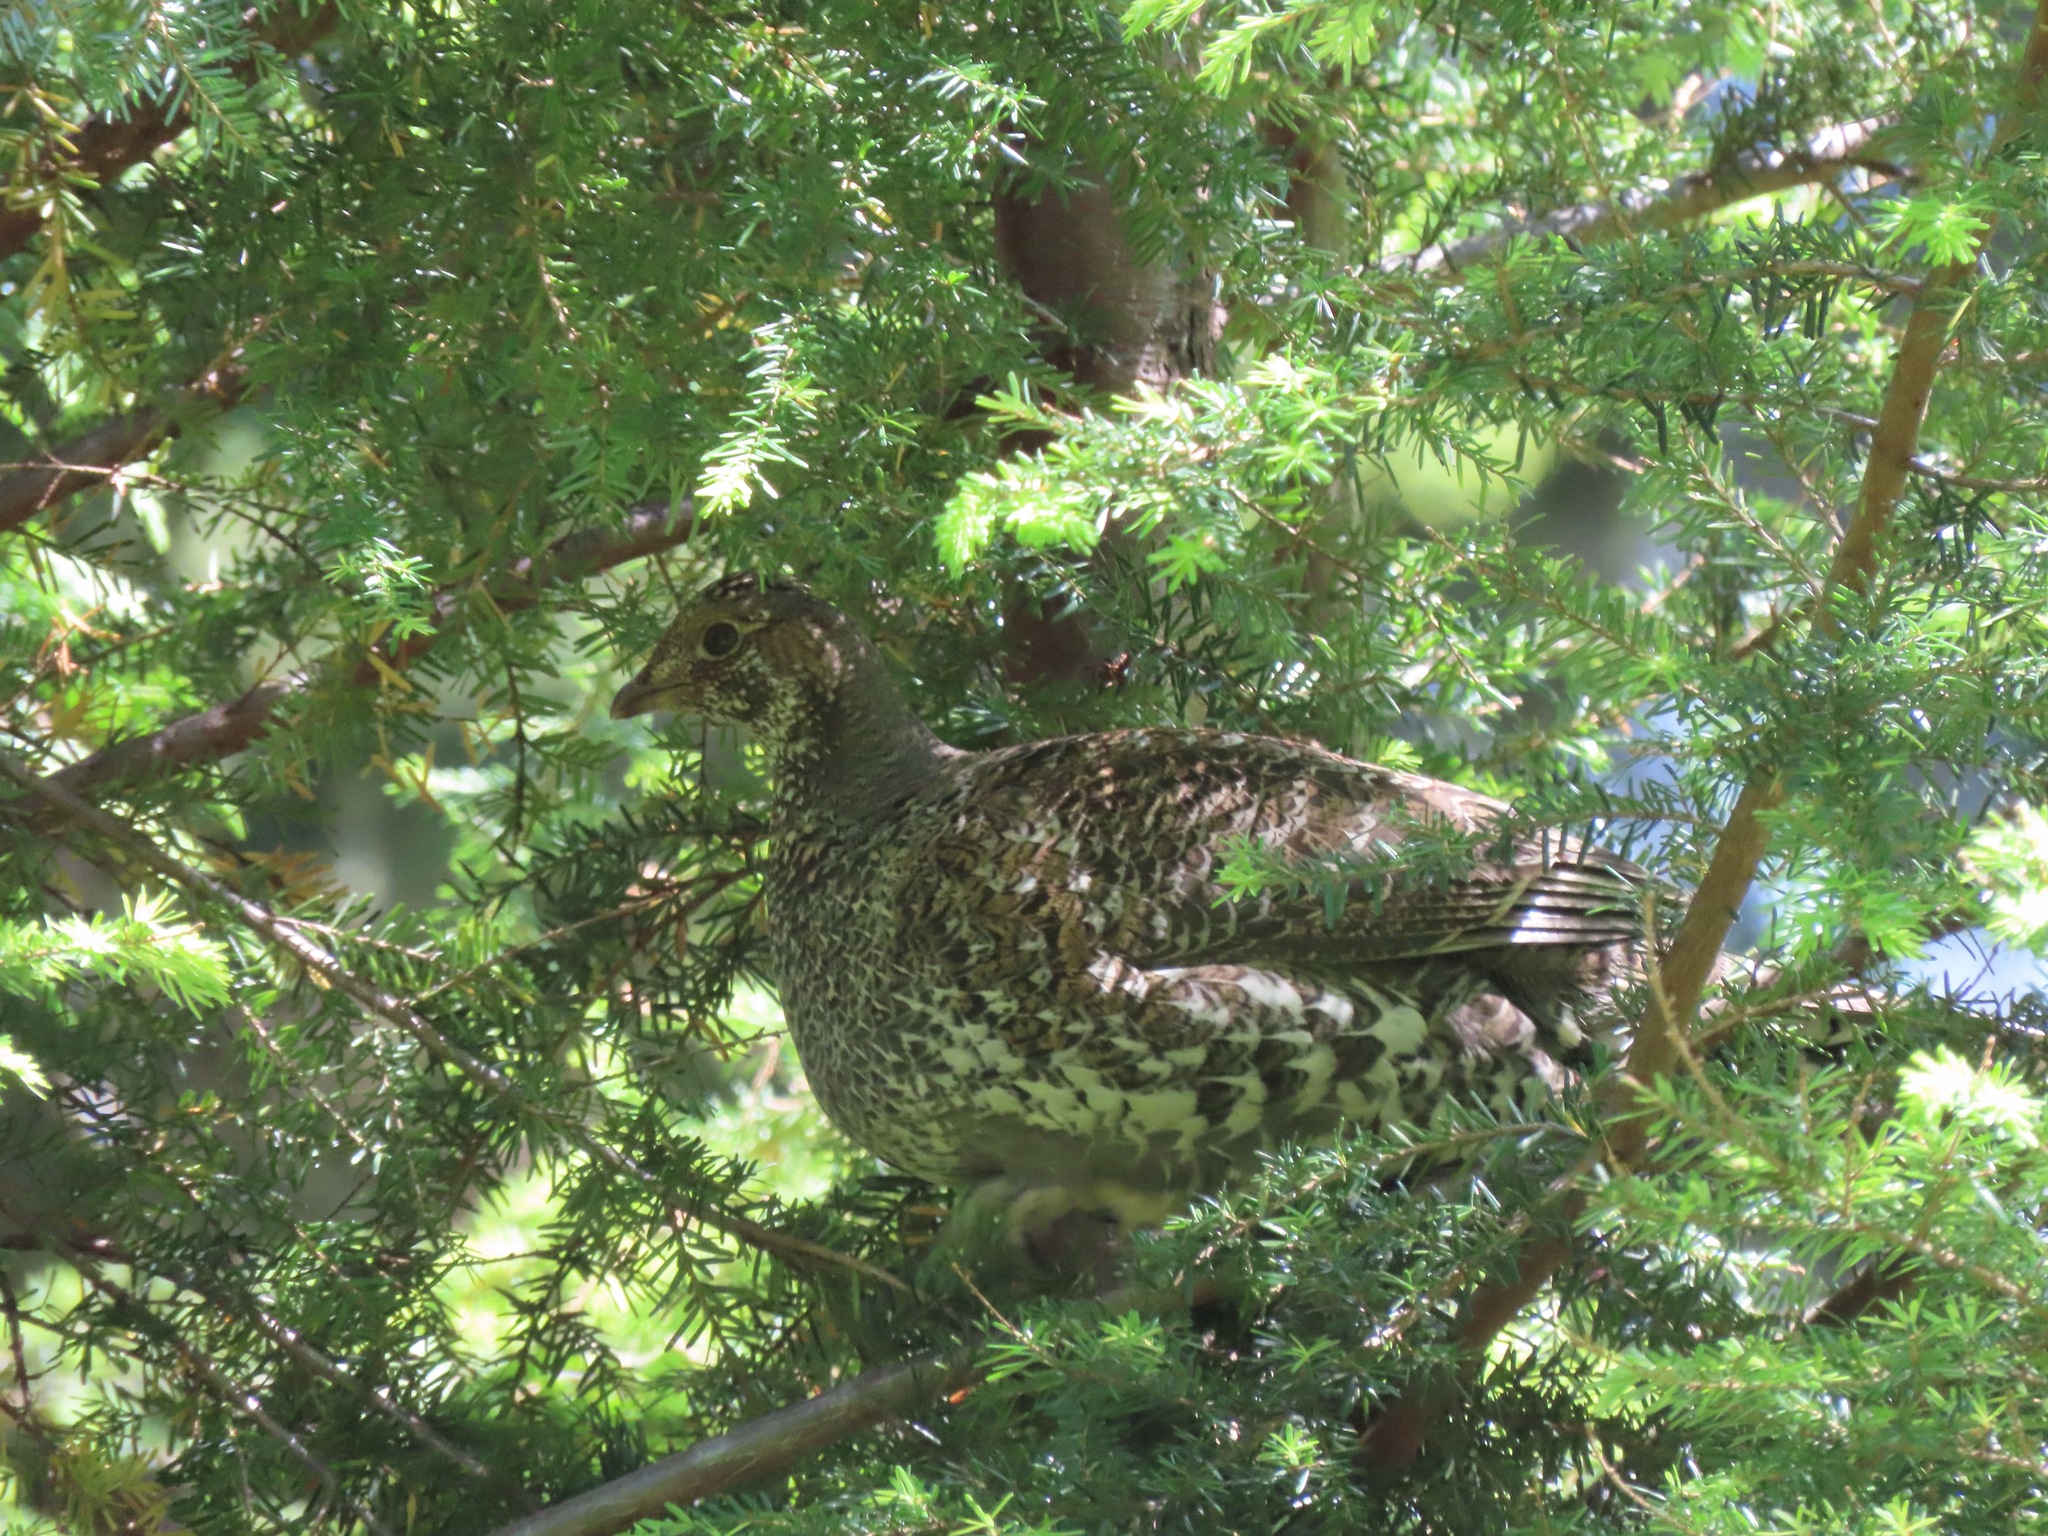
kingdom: Animalia
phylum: Chordata
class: Aves
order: Galliformes
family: Phasianidae
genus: Dendragapus
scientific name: Dendragapus fuliginosus
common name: Sooty grouse
